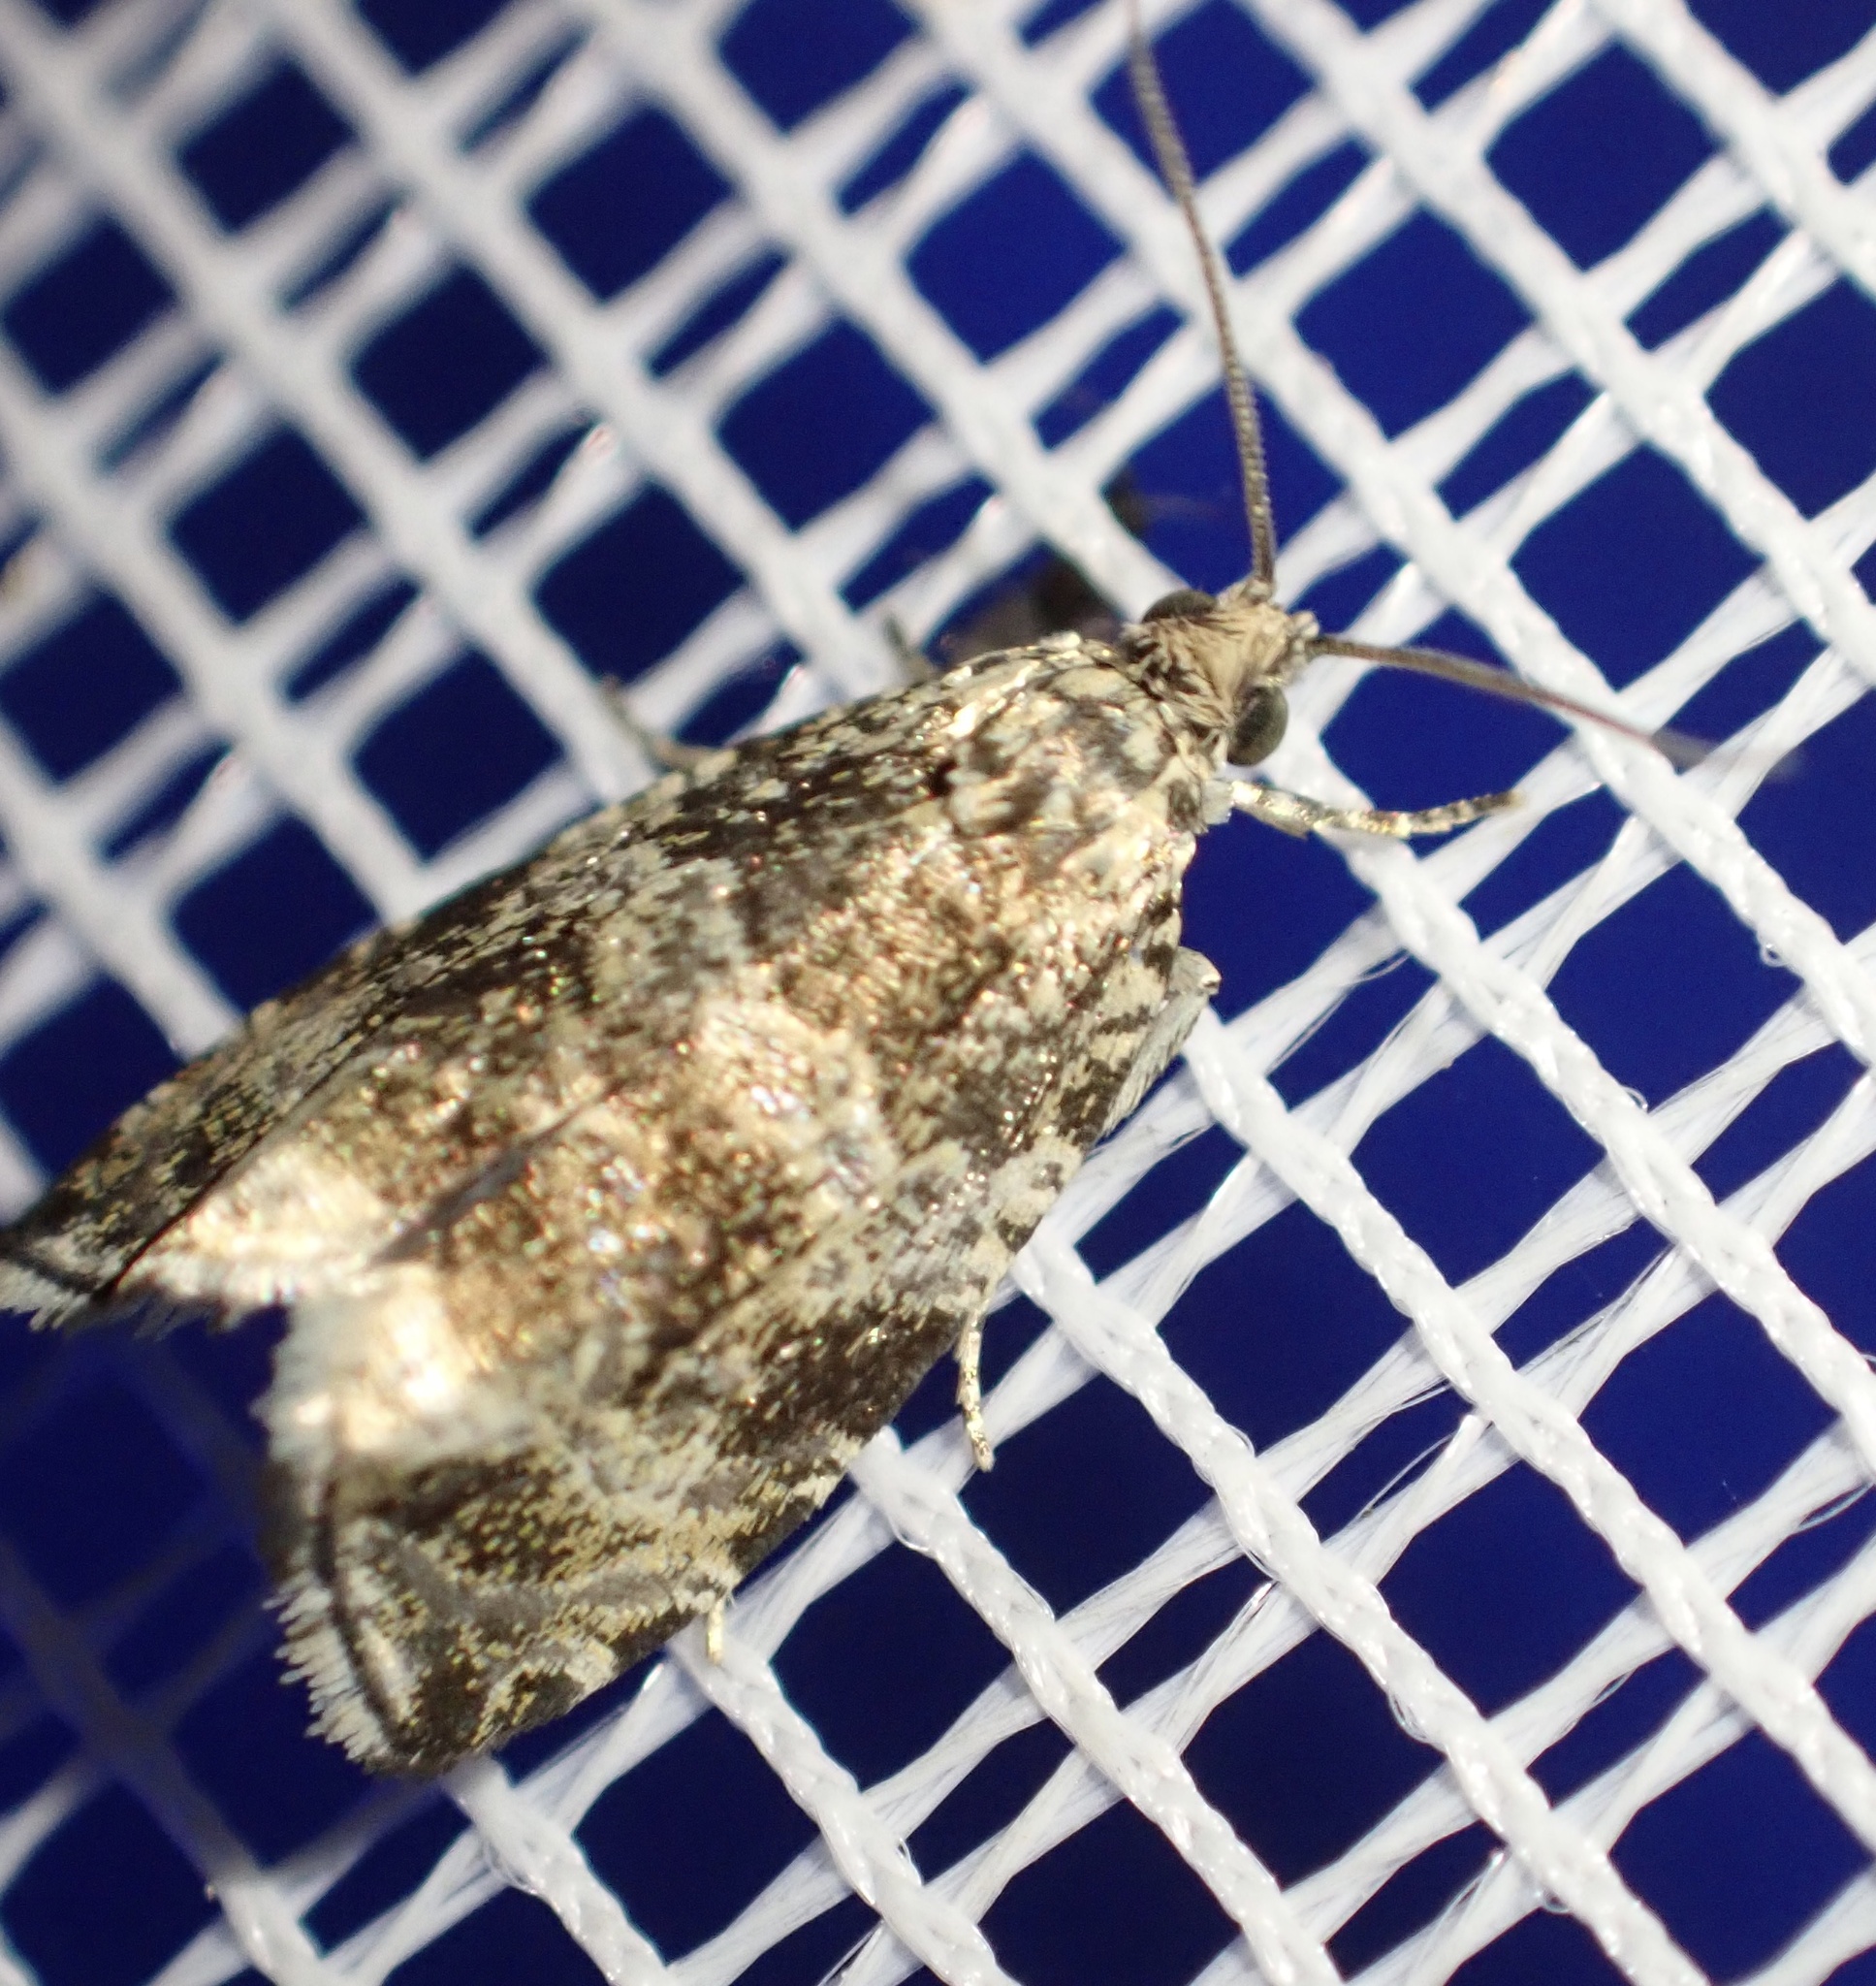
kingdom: Animalia
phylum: Arthropoda
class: Insecta
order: Lepidoptera
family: Tortricidae
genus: Syricoris
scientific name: Syricoris lacunana
